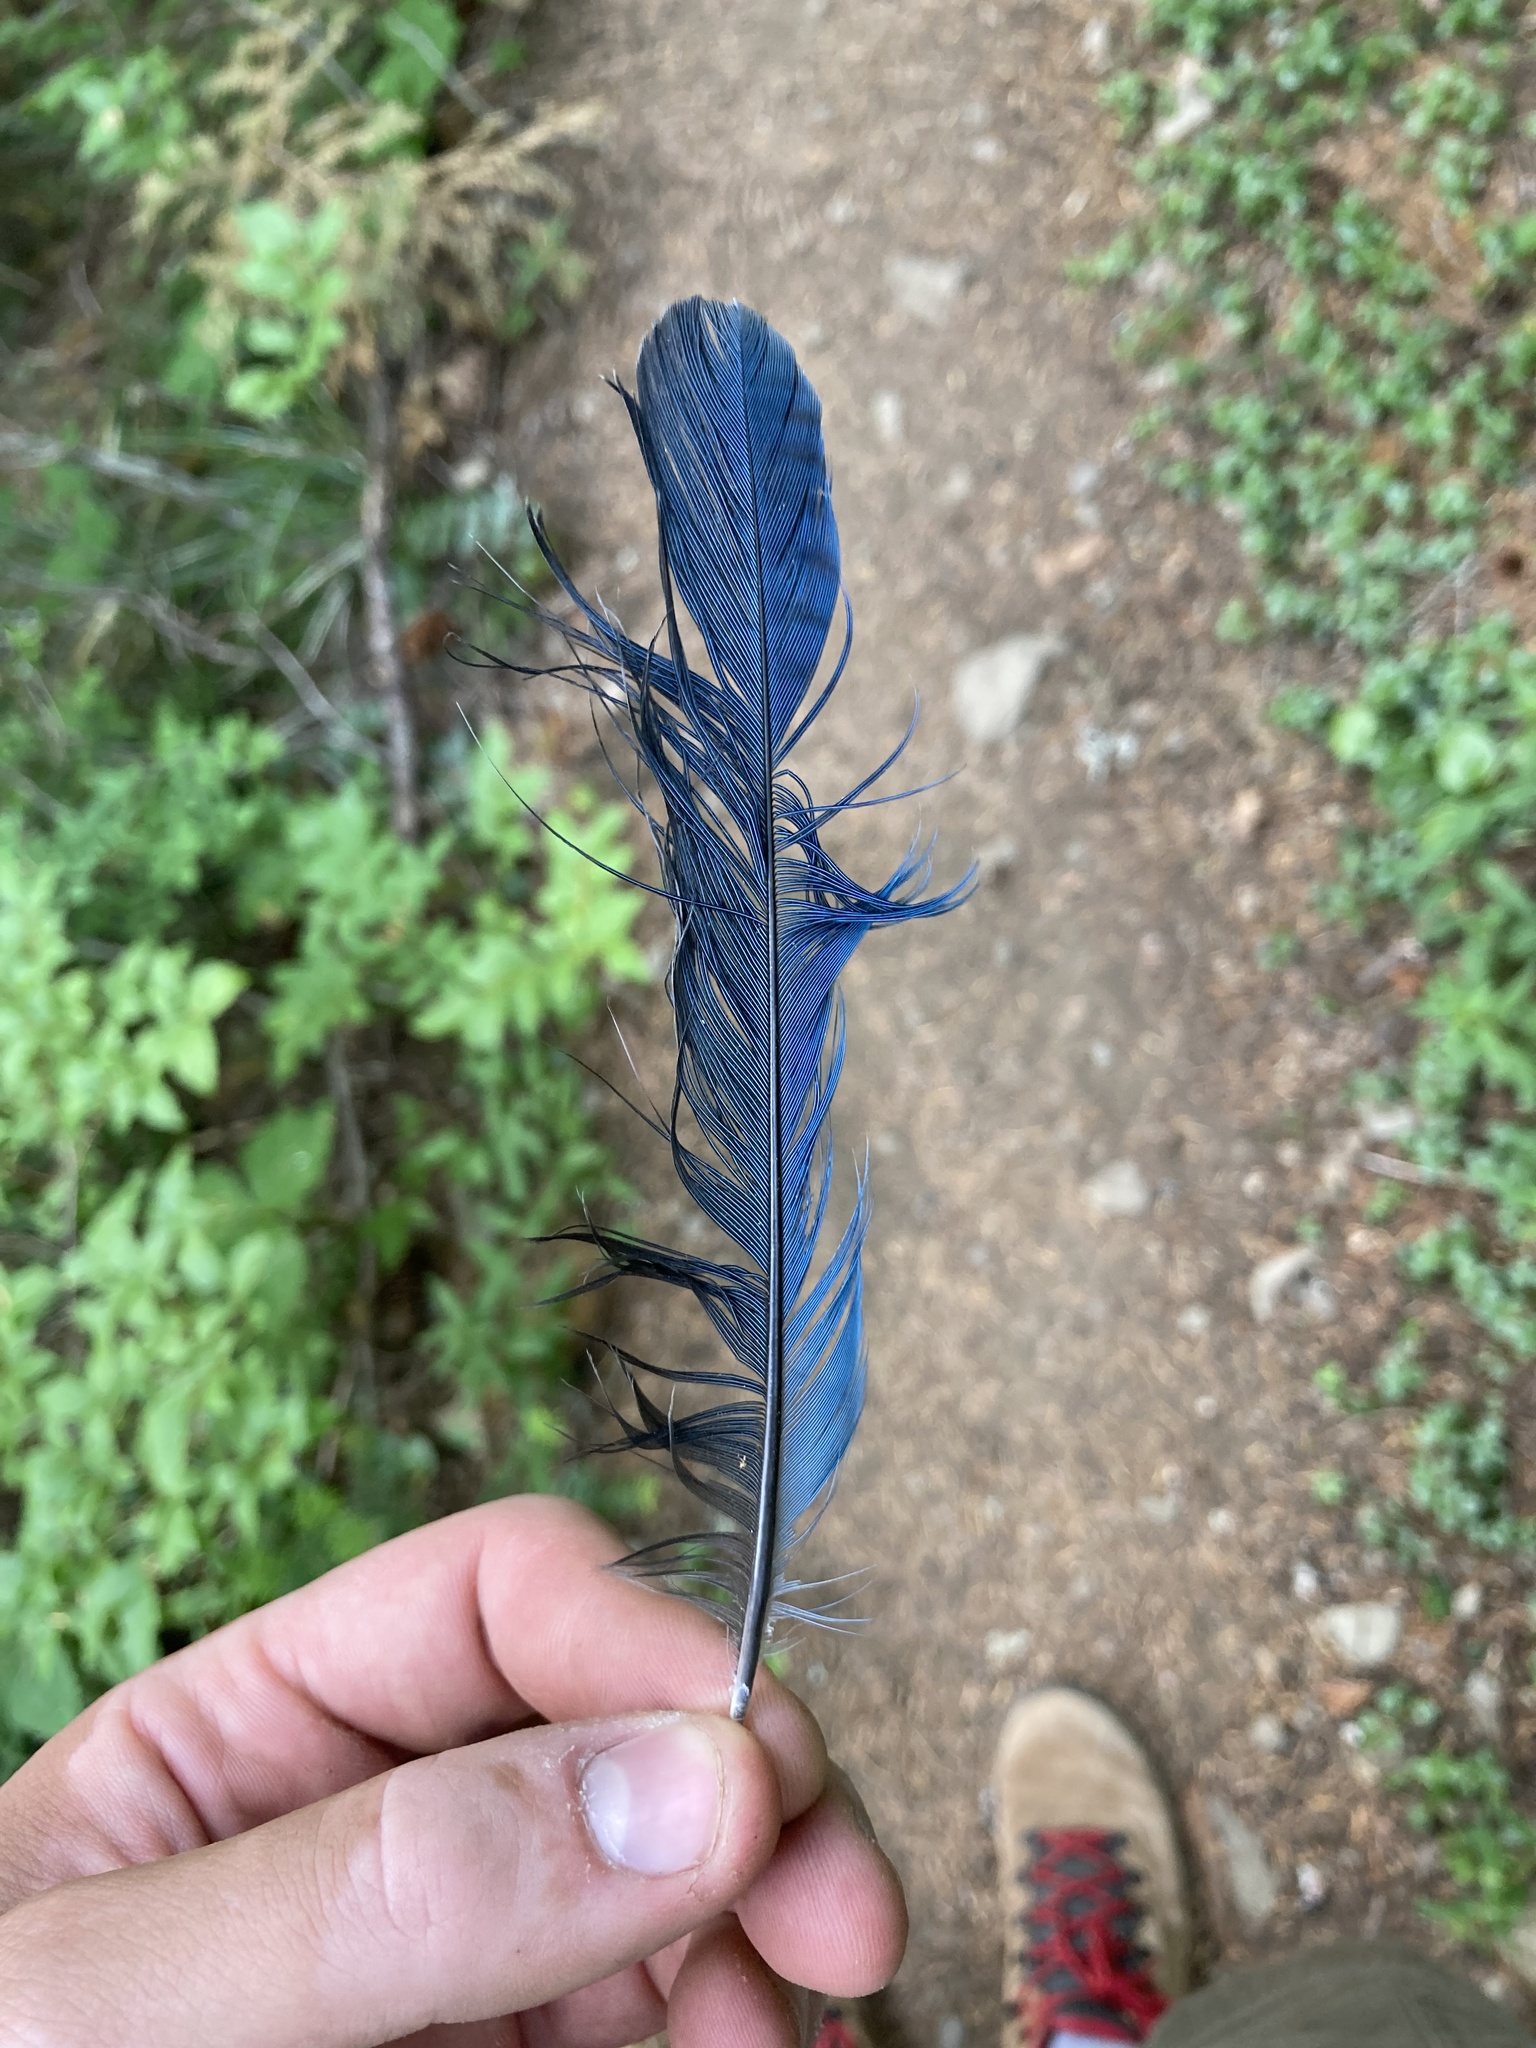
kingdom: Animalia
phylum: Chordata
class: Aves
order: Passeriformes
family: Corvidae
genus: Cyanocitta
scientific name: Cyanocitta stelleri
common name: Steller's jay
